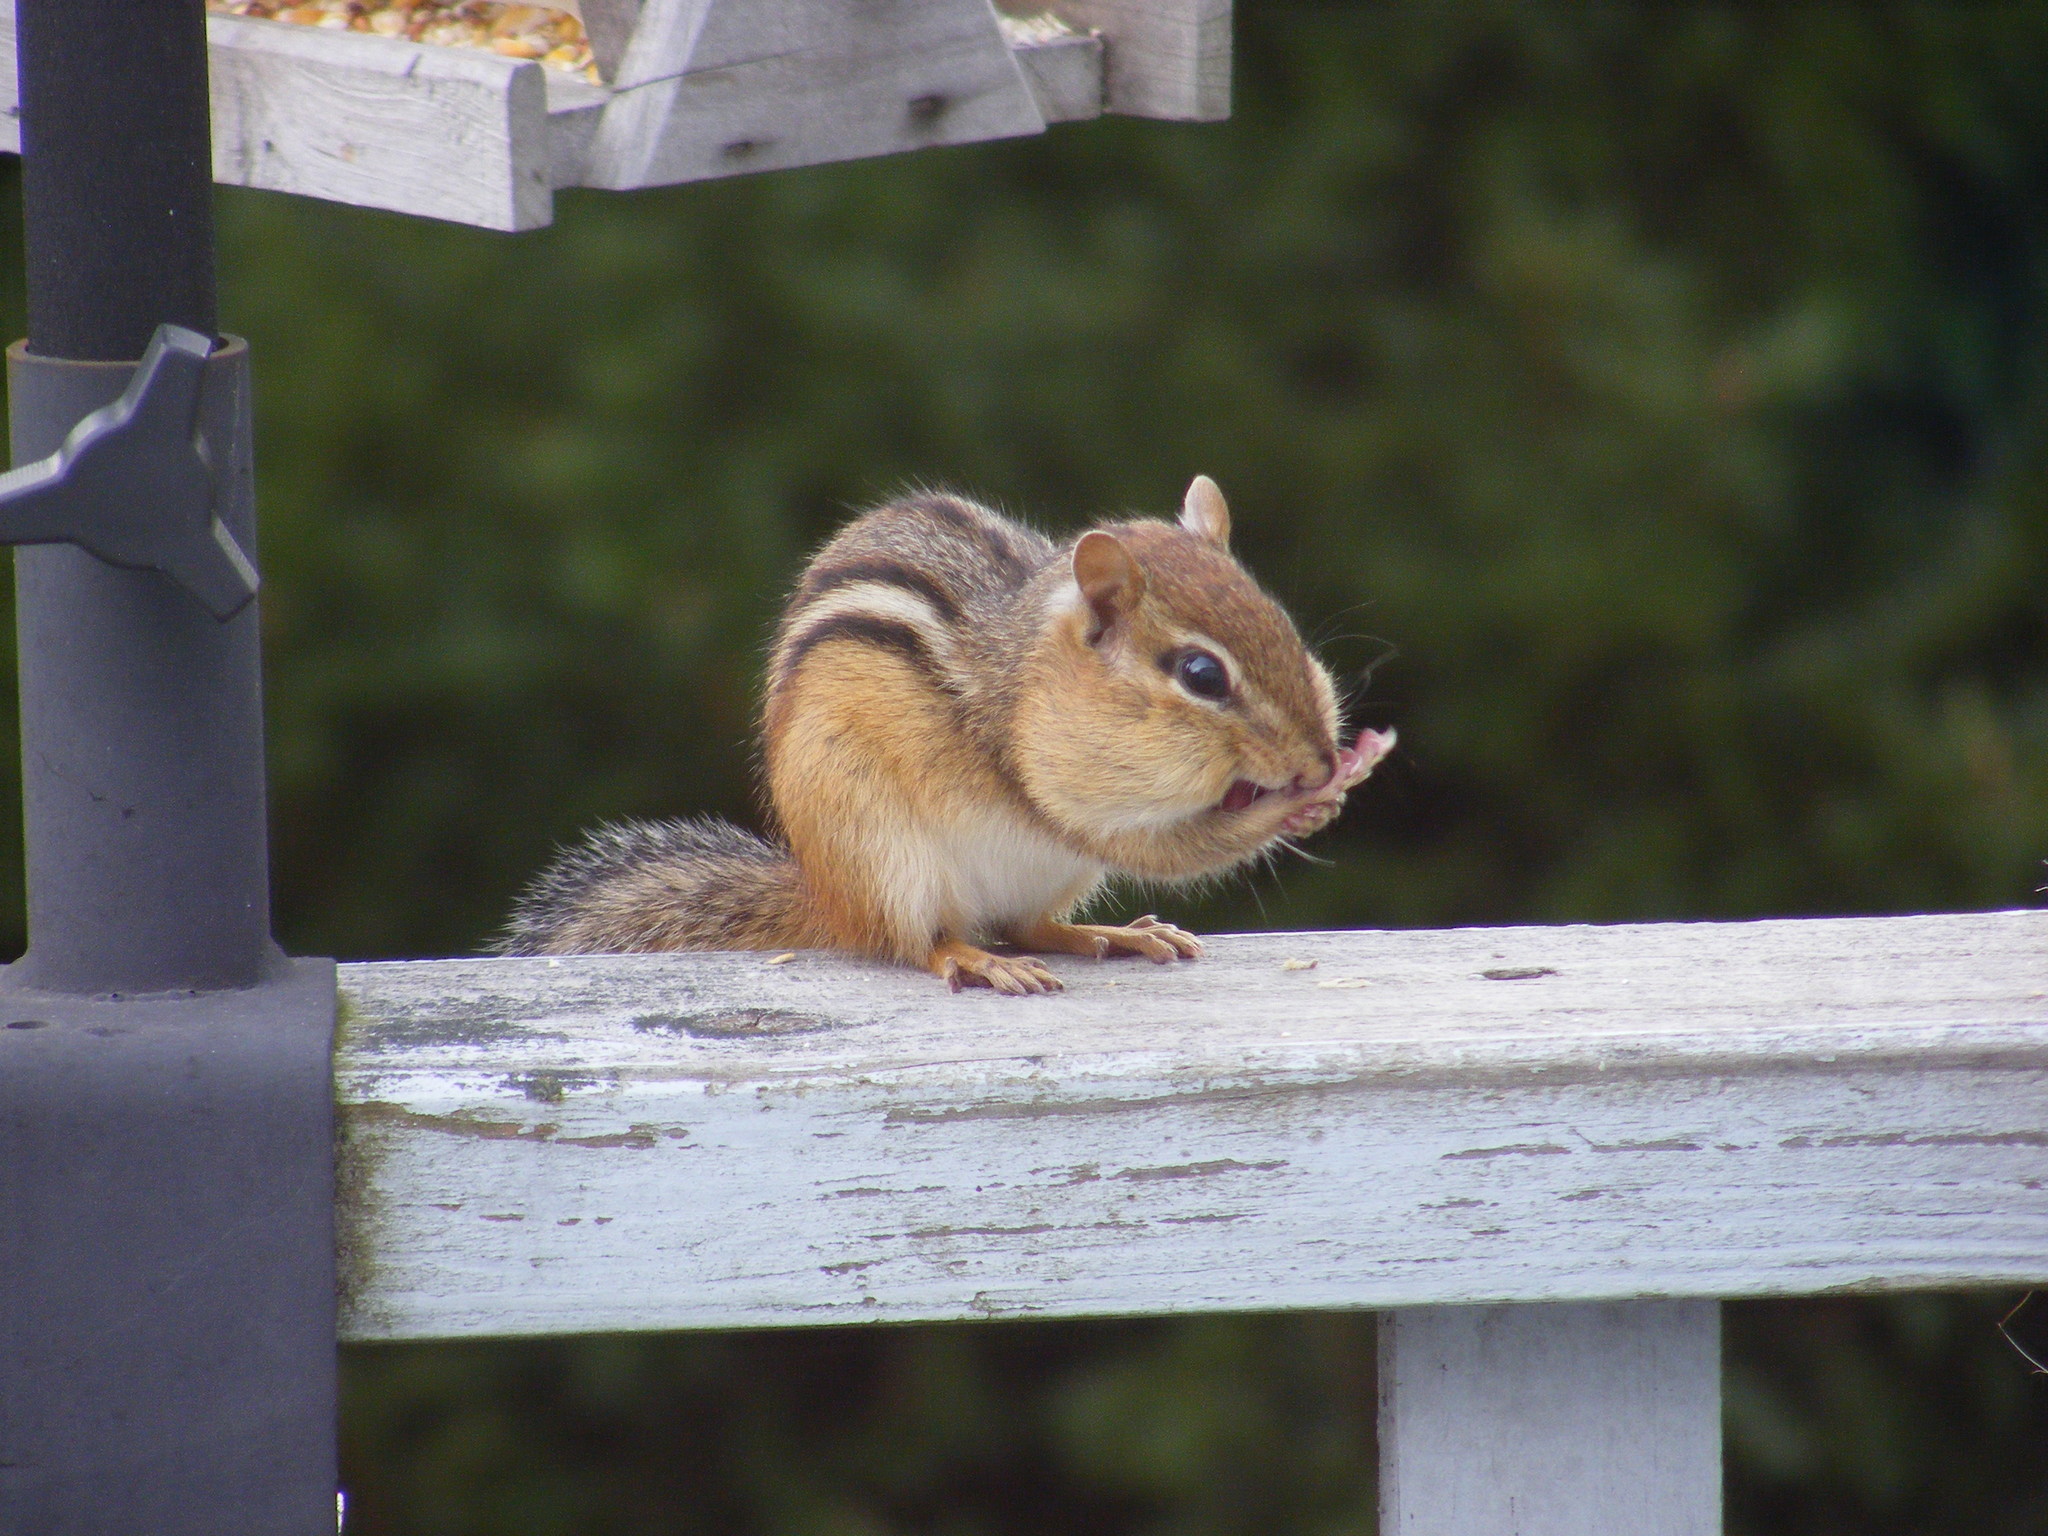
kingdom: Animalia
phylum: Chordata
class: Mammalia
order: Rodentia
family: Sciuridae
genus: Tamias
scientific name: Tamias striatus
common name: Eastern chipmunk
